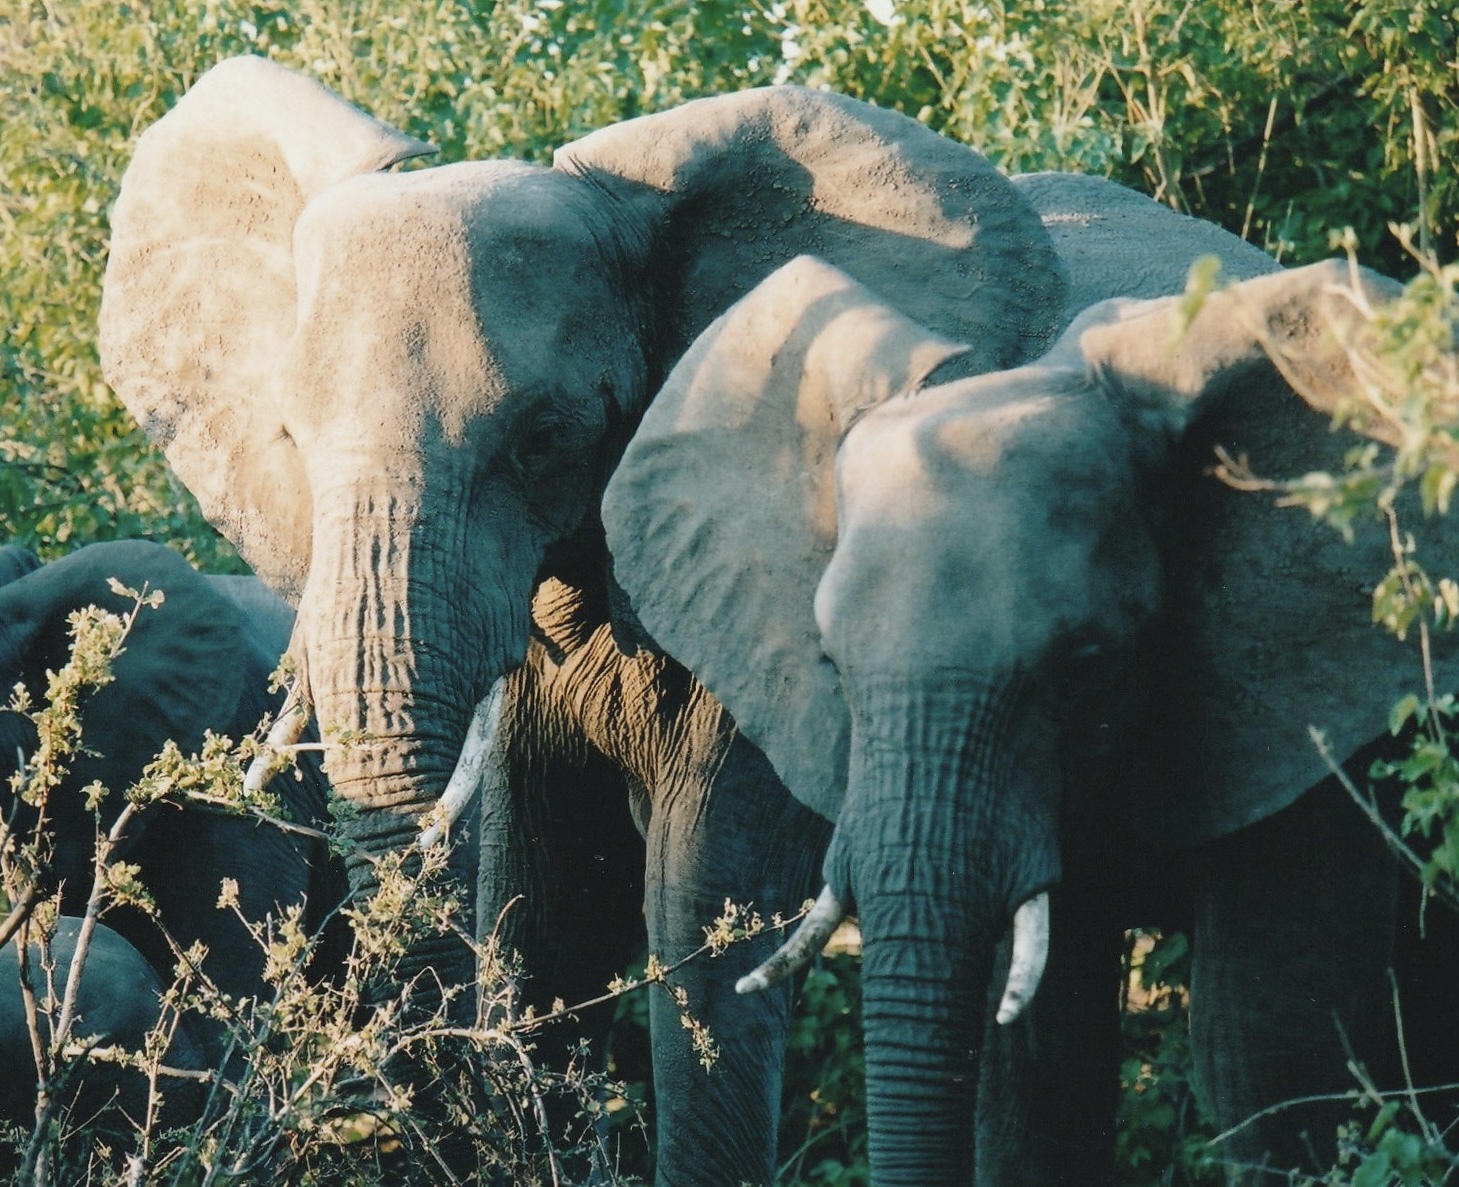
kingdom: Animalia
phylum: Chordata
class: Mammalia
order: Proboscidea
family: Elephantidae
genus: Loxodonta
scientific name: Loxodonta africana
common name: African elephant
